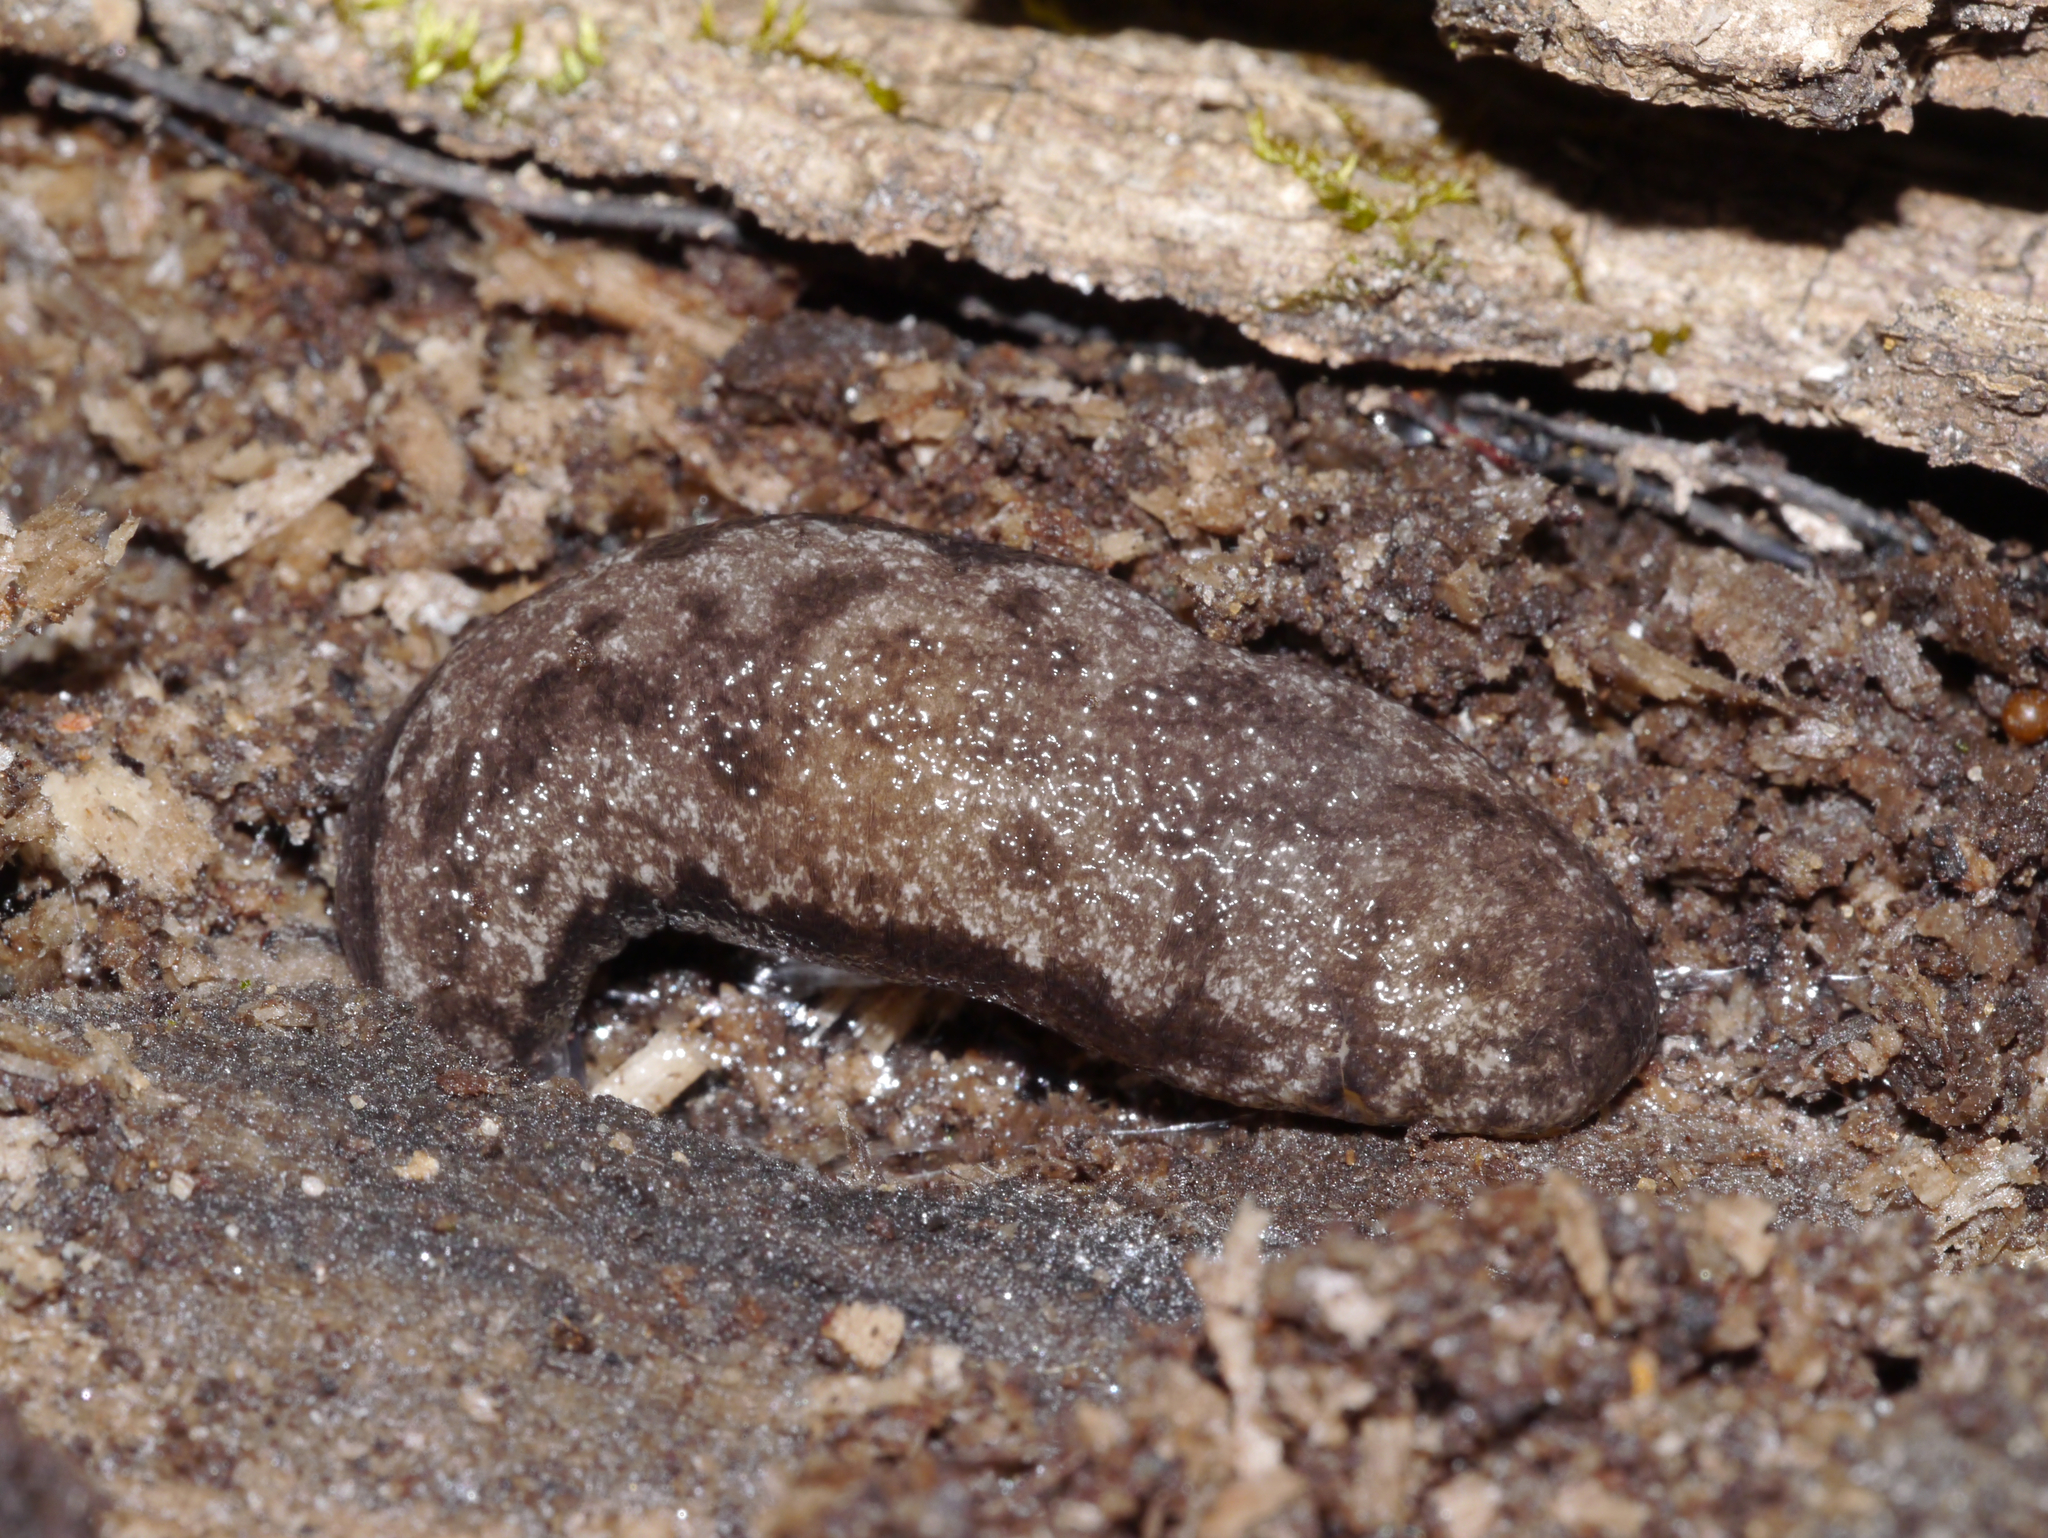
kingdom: Animalia
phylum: Mollusca
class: Gastropoda
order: Stylommatophora
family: Philomycidae
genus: Megapallifera
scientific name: Megapallifera mutabilis
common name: Changeable mantleslug
